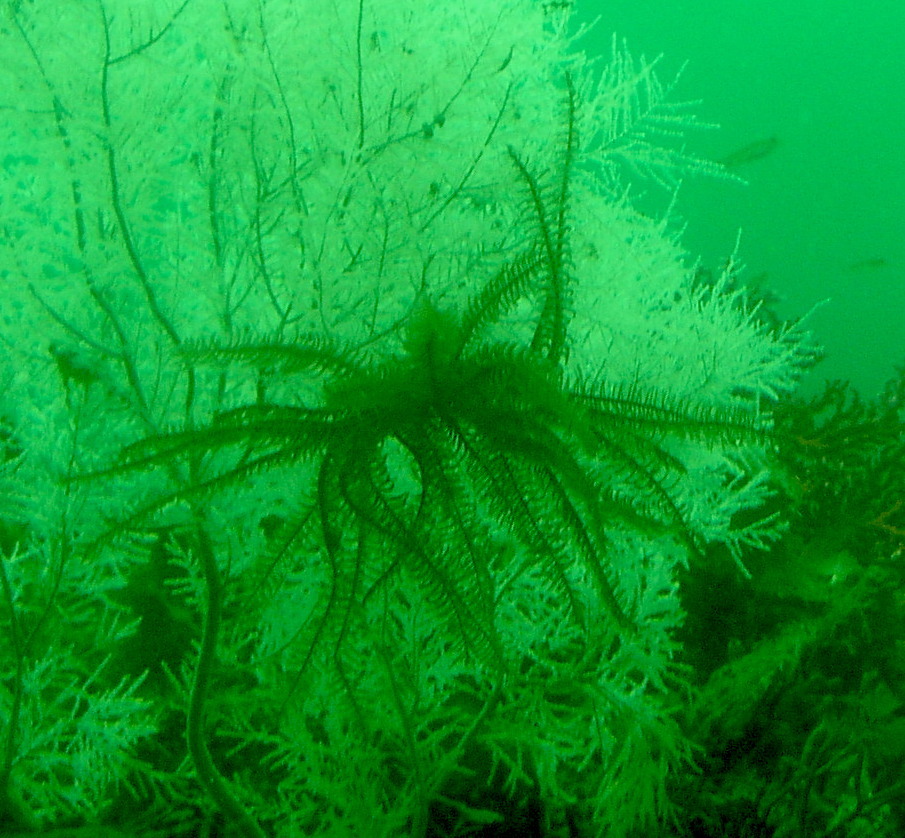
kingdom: Animalia
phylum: Echinodermata
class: Crinoidea
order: Comatulida
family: Comatulidae
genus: Anneissia
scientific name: Anneissia benhami
